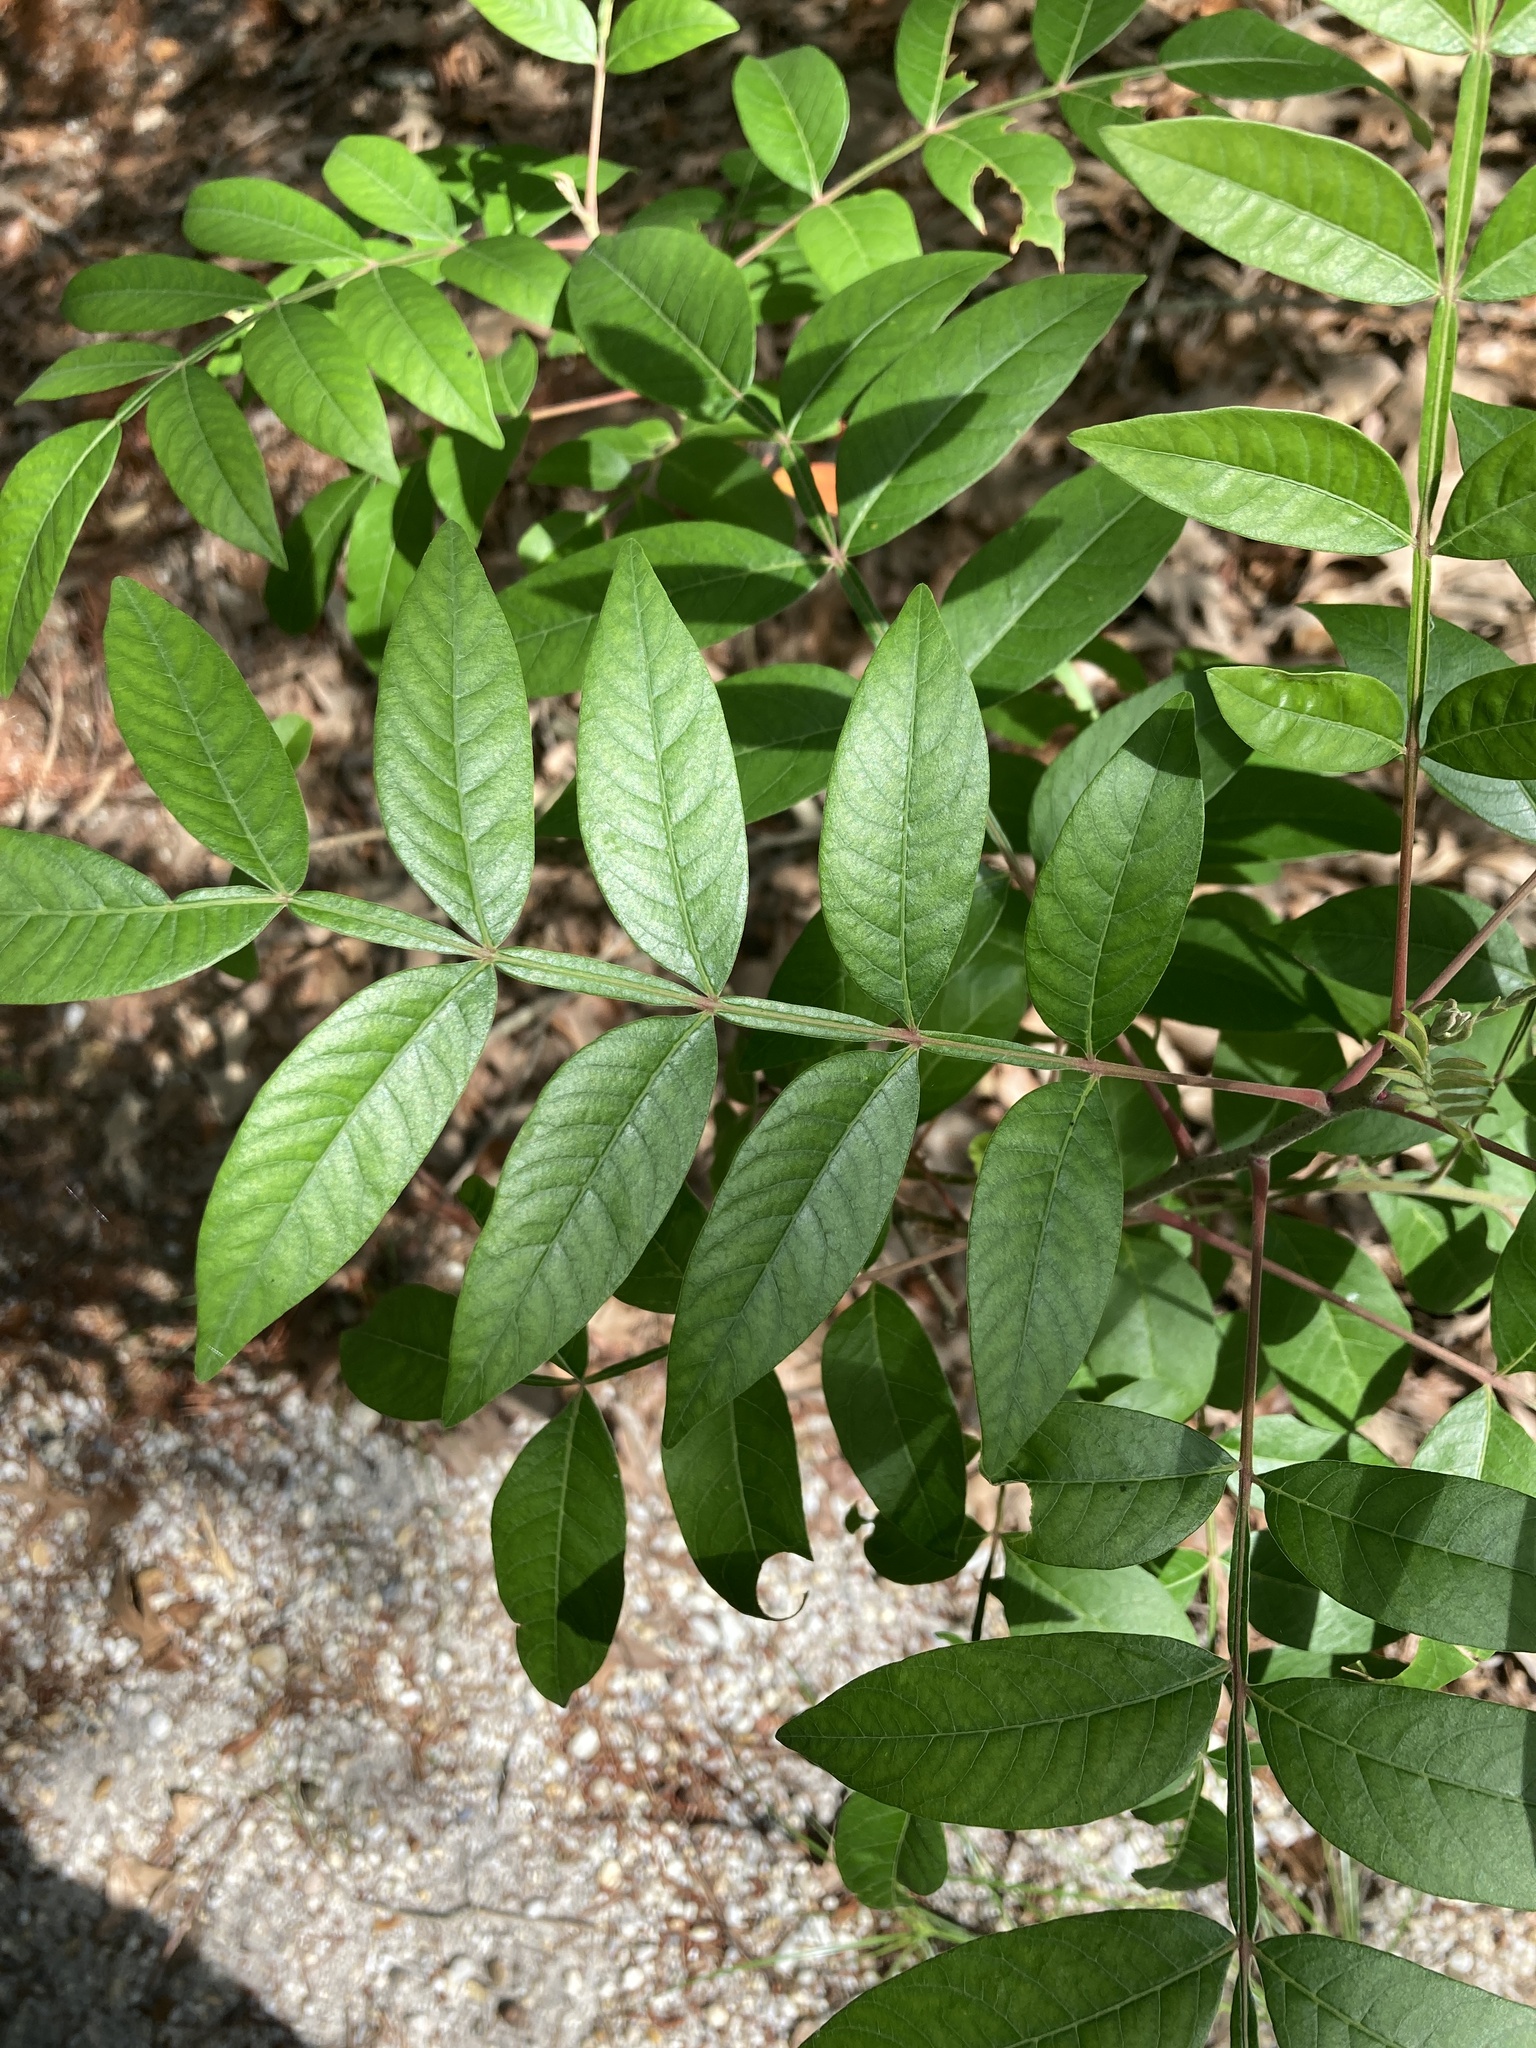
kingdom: Plantae
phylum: Tracheophyta
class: Magnoliopsida
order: Sapindales
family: Anacardiaceae
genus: Rhus
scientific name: Rhus copallina
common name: Shining sumac
